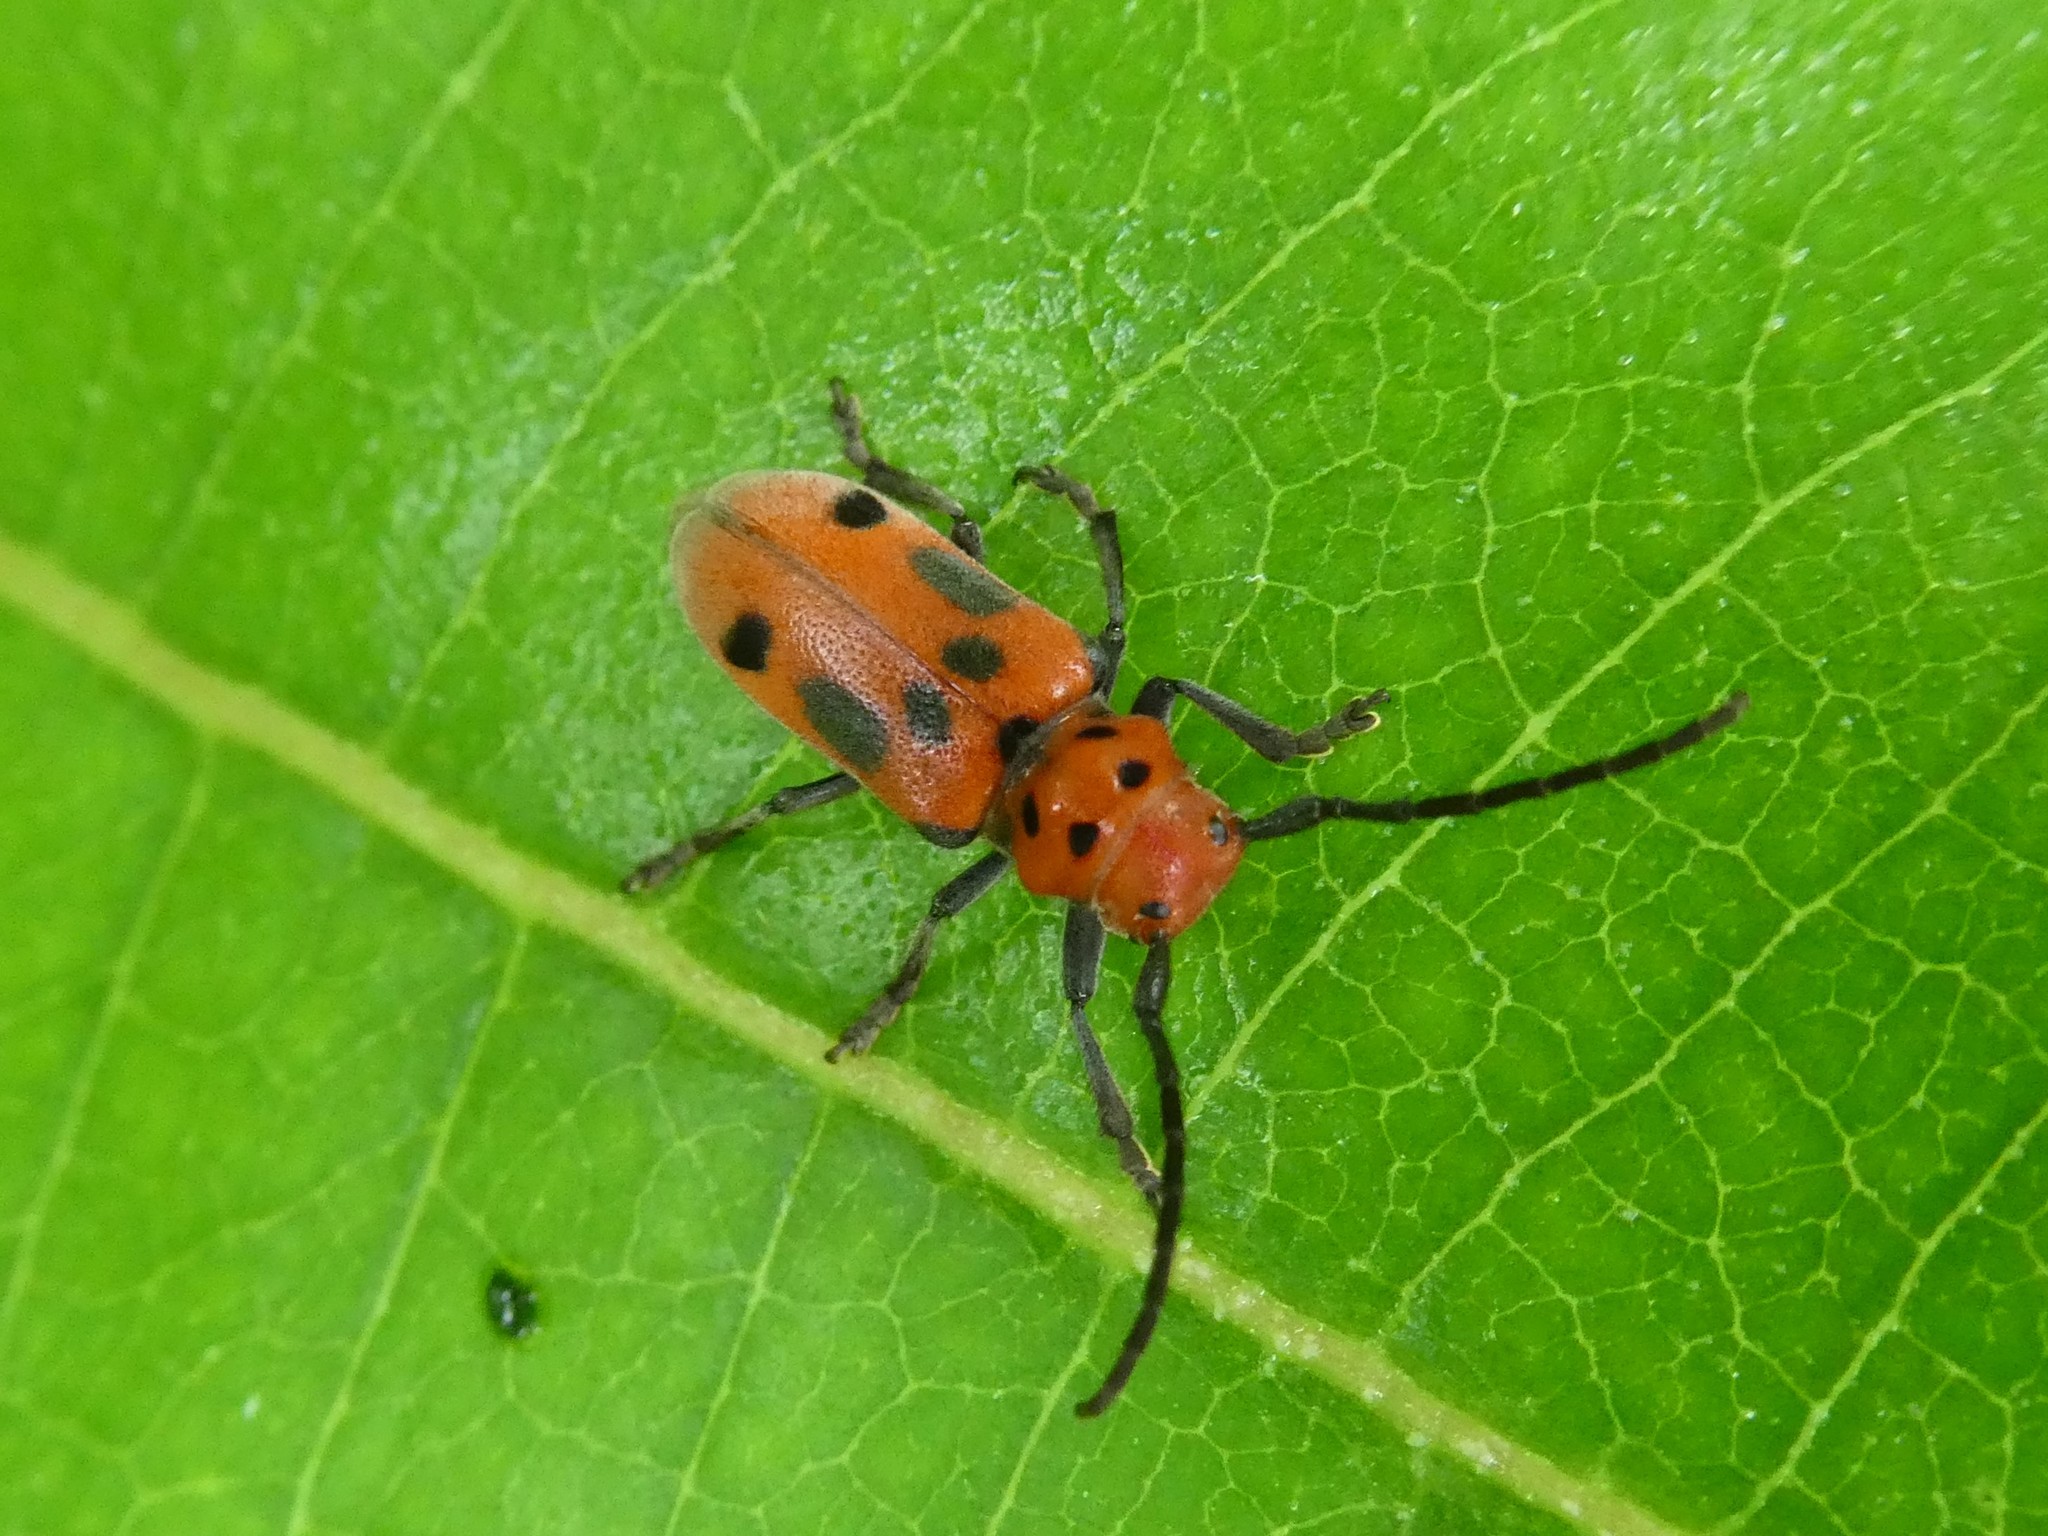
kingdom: Animalia
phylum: Arthropoda
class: Insecta
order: Coleoptera
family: Cerambycidae
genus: Tetraopes
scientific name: Tetraopes tetrophthalmus
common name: Red milkweed beetle
